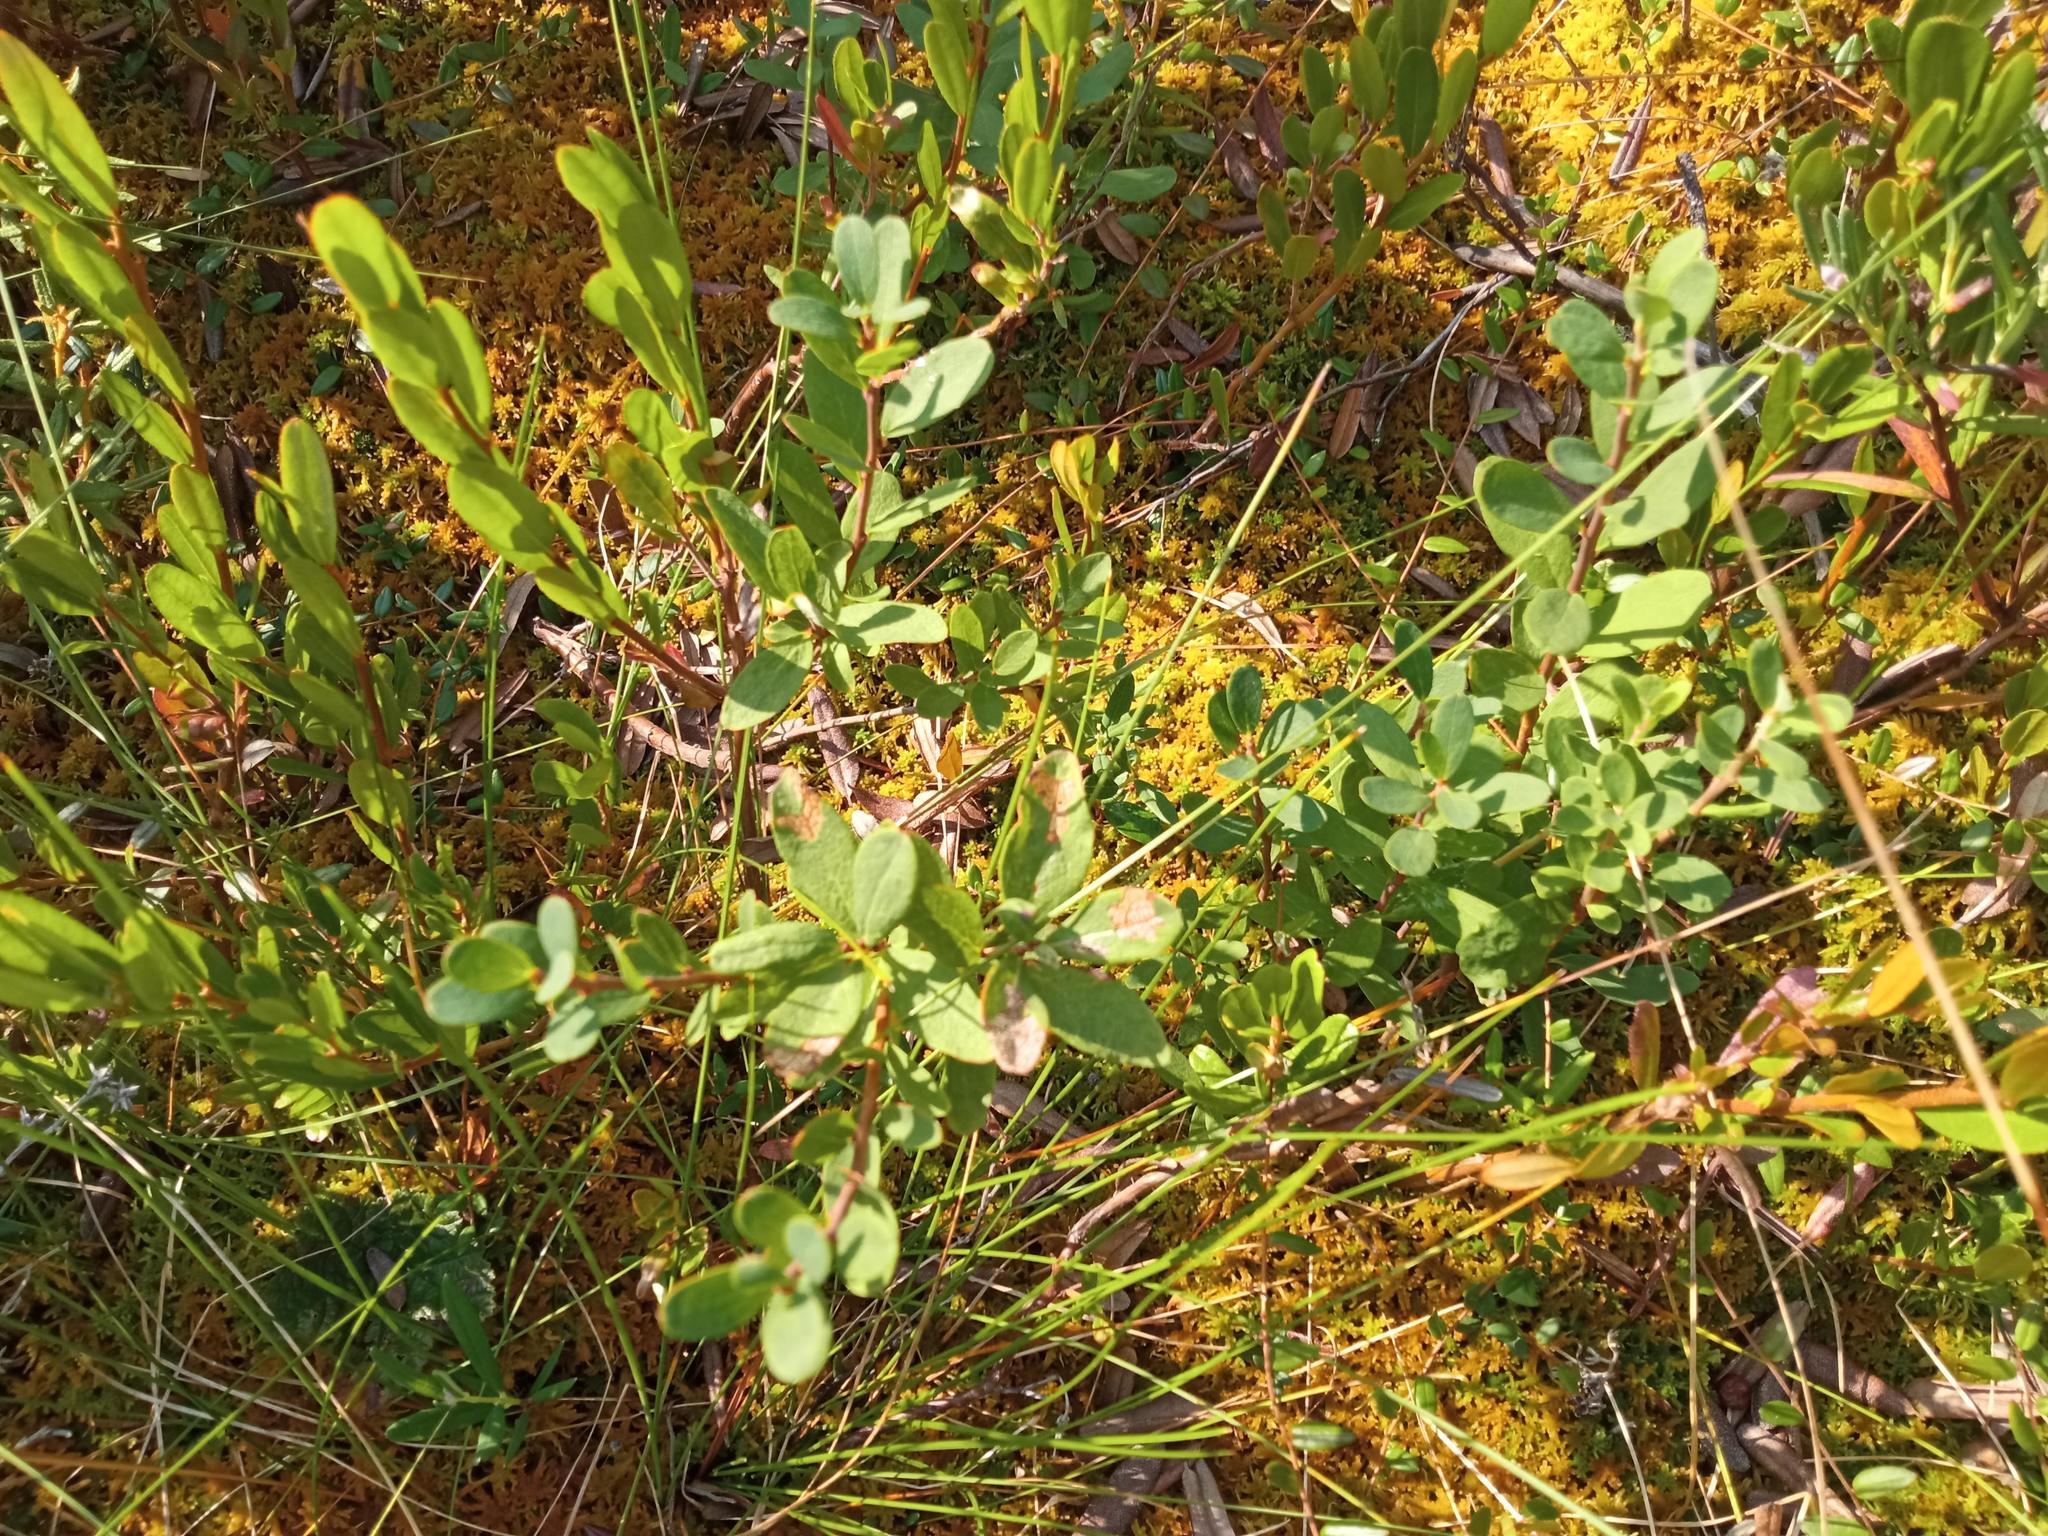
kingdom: Plantae
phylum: Tracheophyta
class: Magnoliopsida
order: Ericales
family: Ericaceae
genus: Vaccinium
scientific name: Vaccinium uliginosum
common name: Bog bilberry
